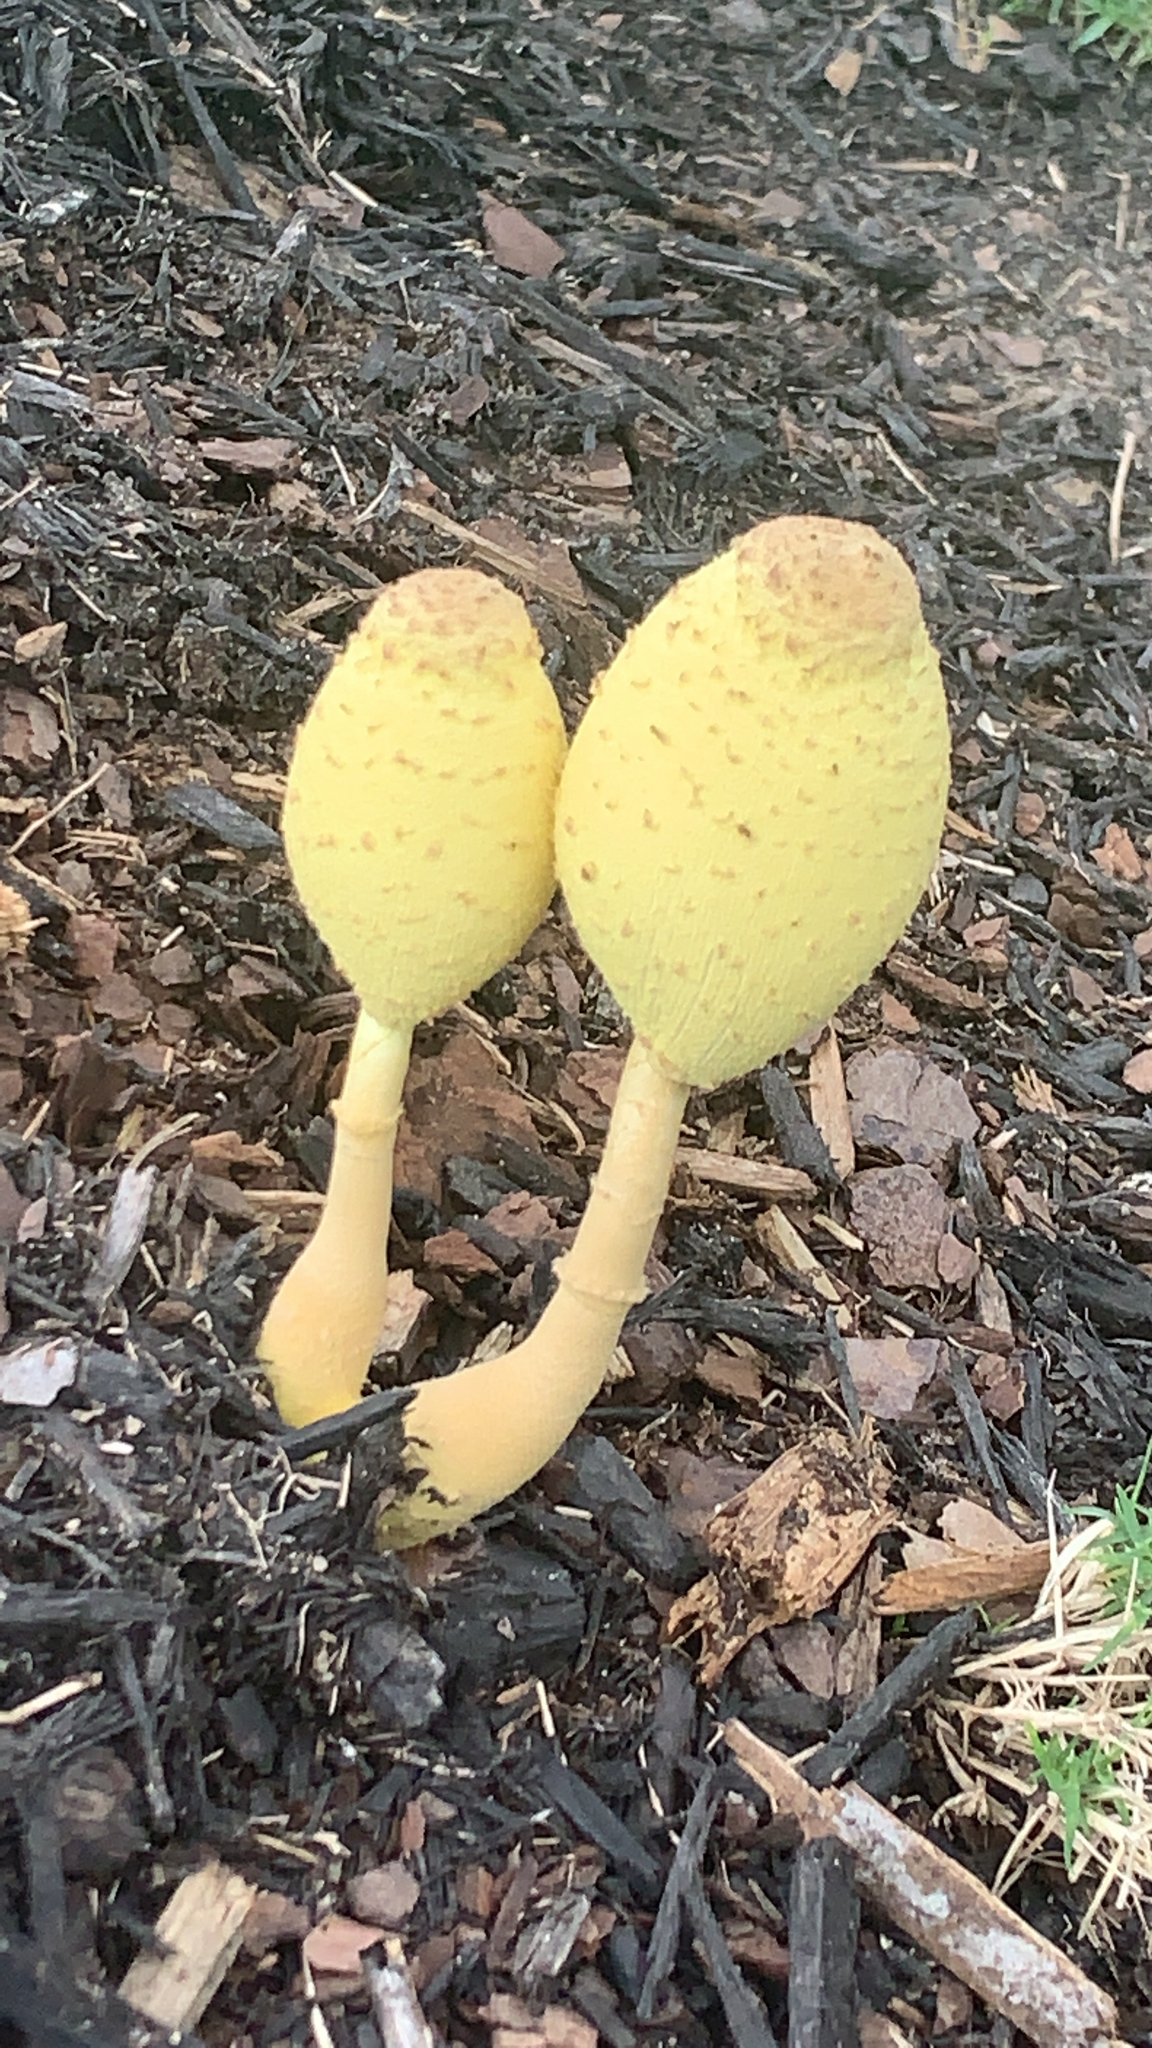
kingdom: Fungi
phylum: Basidiomycota
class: Agaricomycetes
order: Agaricales
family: Agaricaceae
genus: Leucocoprinus
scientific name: Leucocoprinus birnbaumii
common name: Plantpot dapperling
